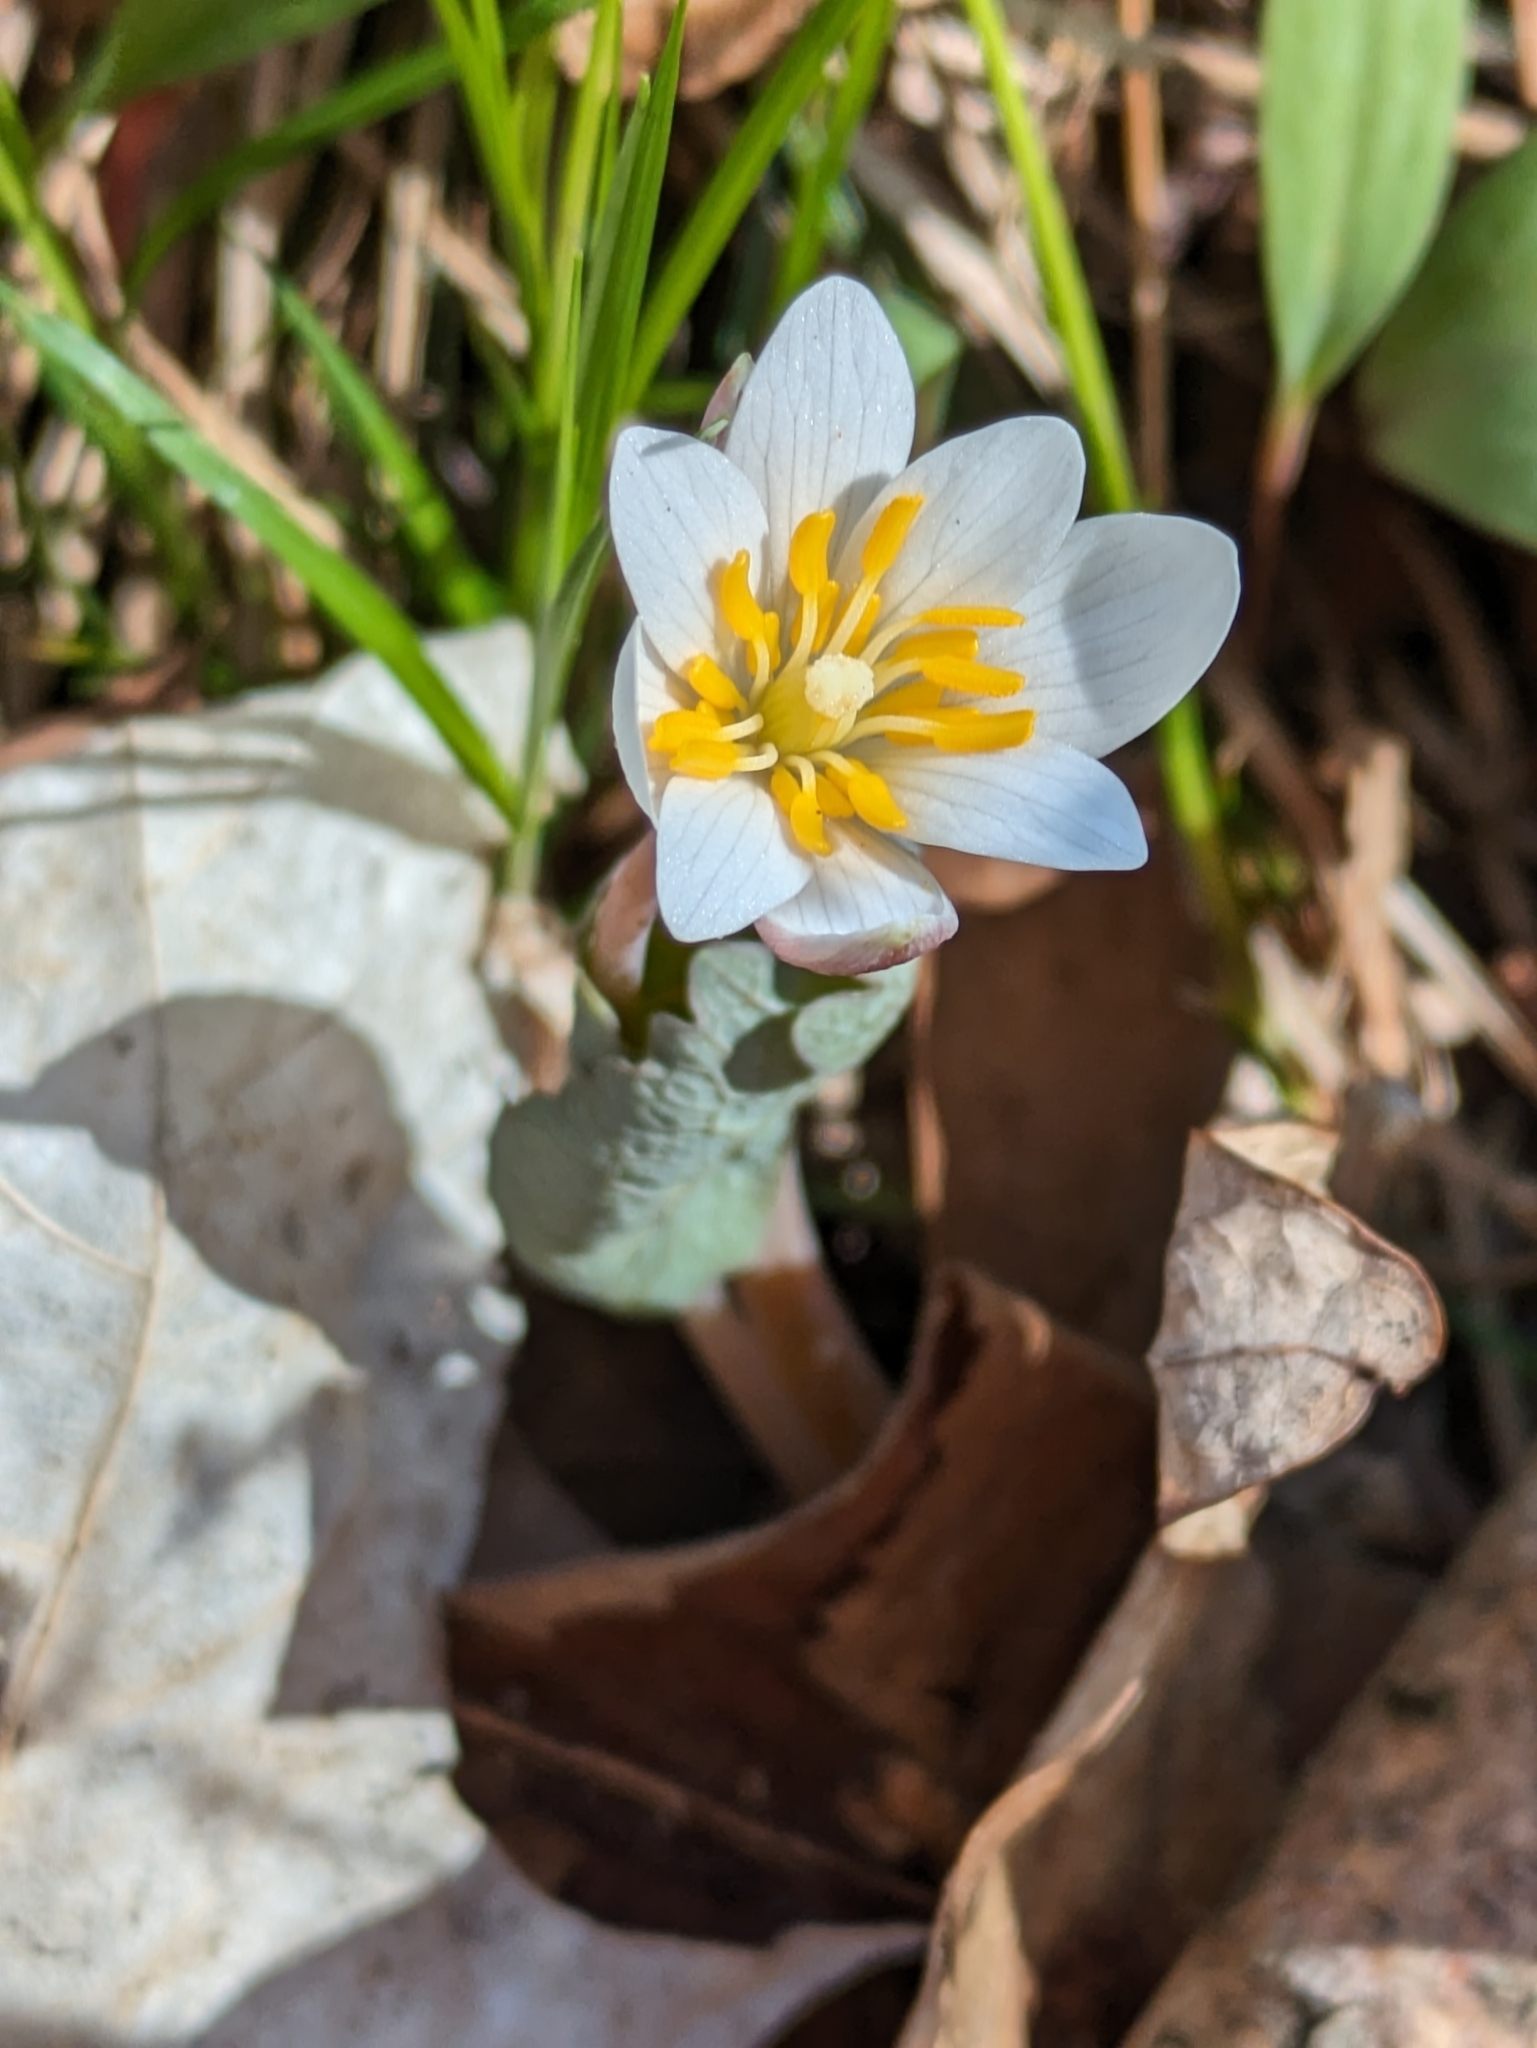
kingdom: Plantae
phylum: Tracheophyta
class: Magnoliopsida
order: Ranunculales
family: Papaveraceae
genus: Sanguinaria
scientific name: Sanguinaria canadensis
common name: Bloodroot
